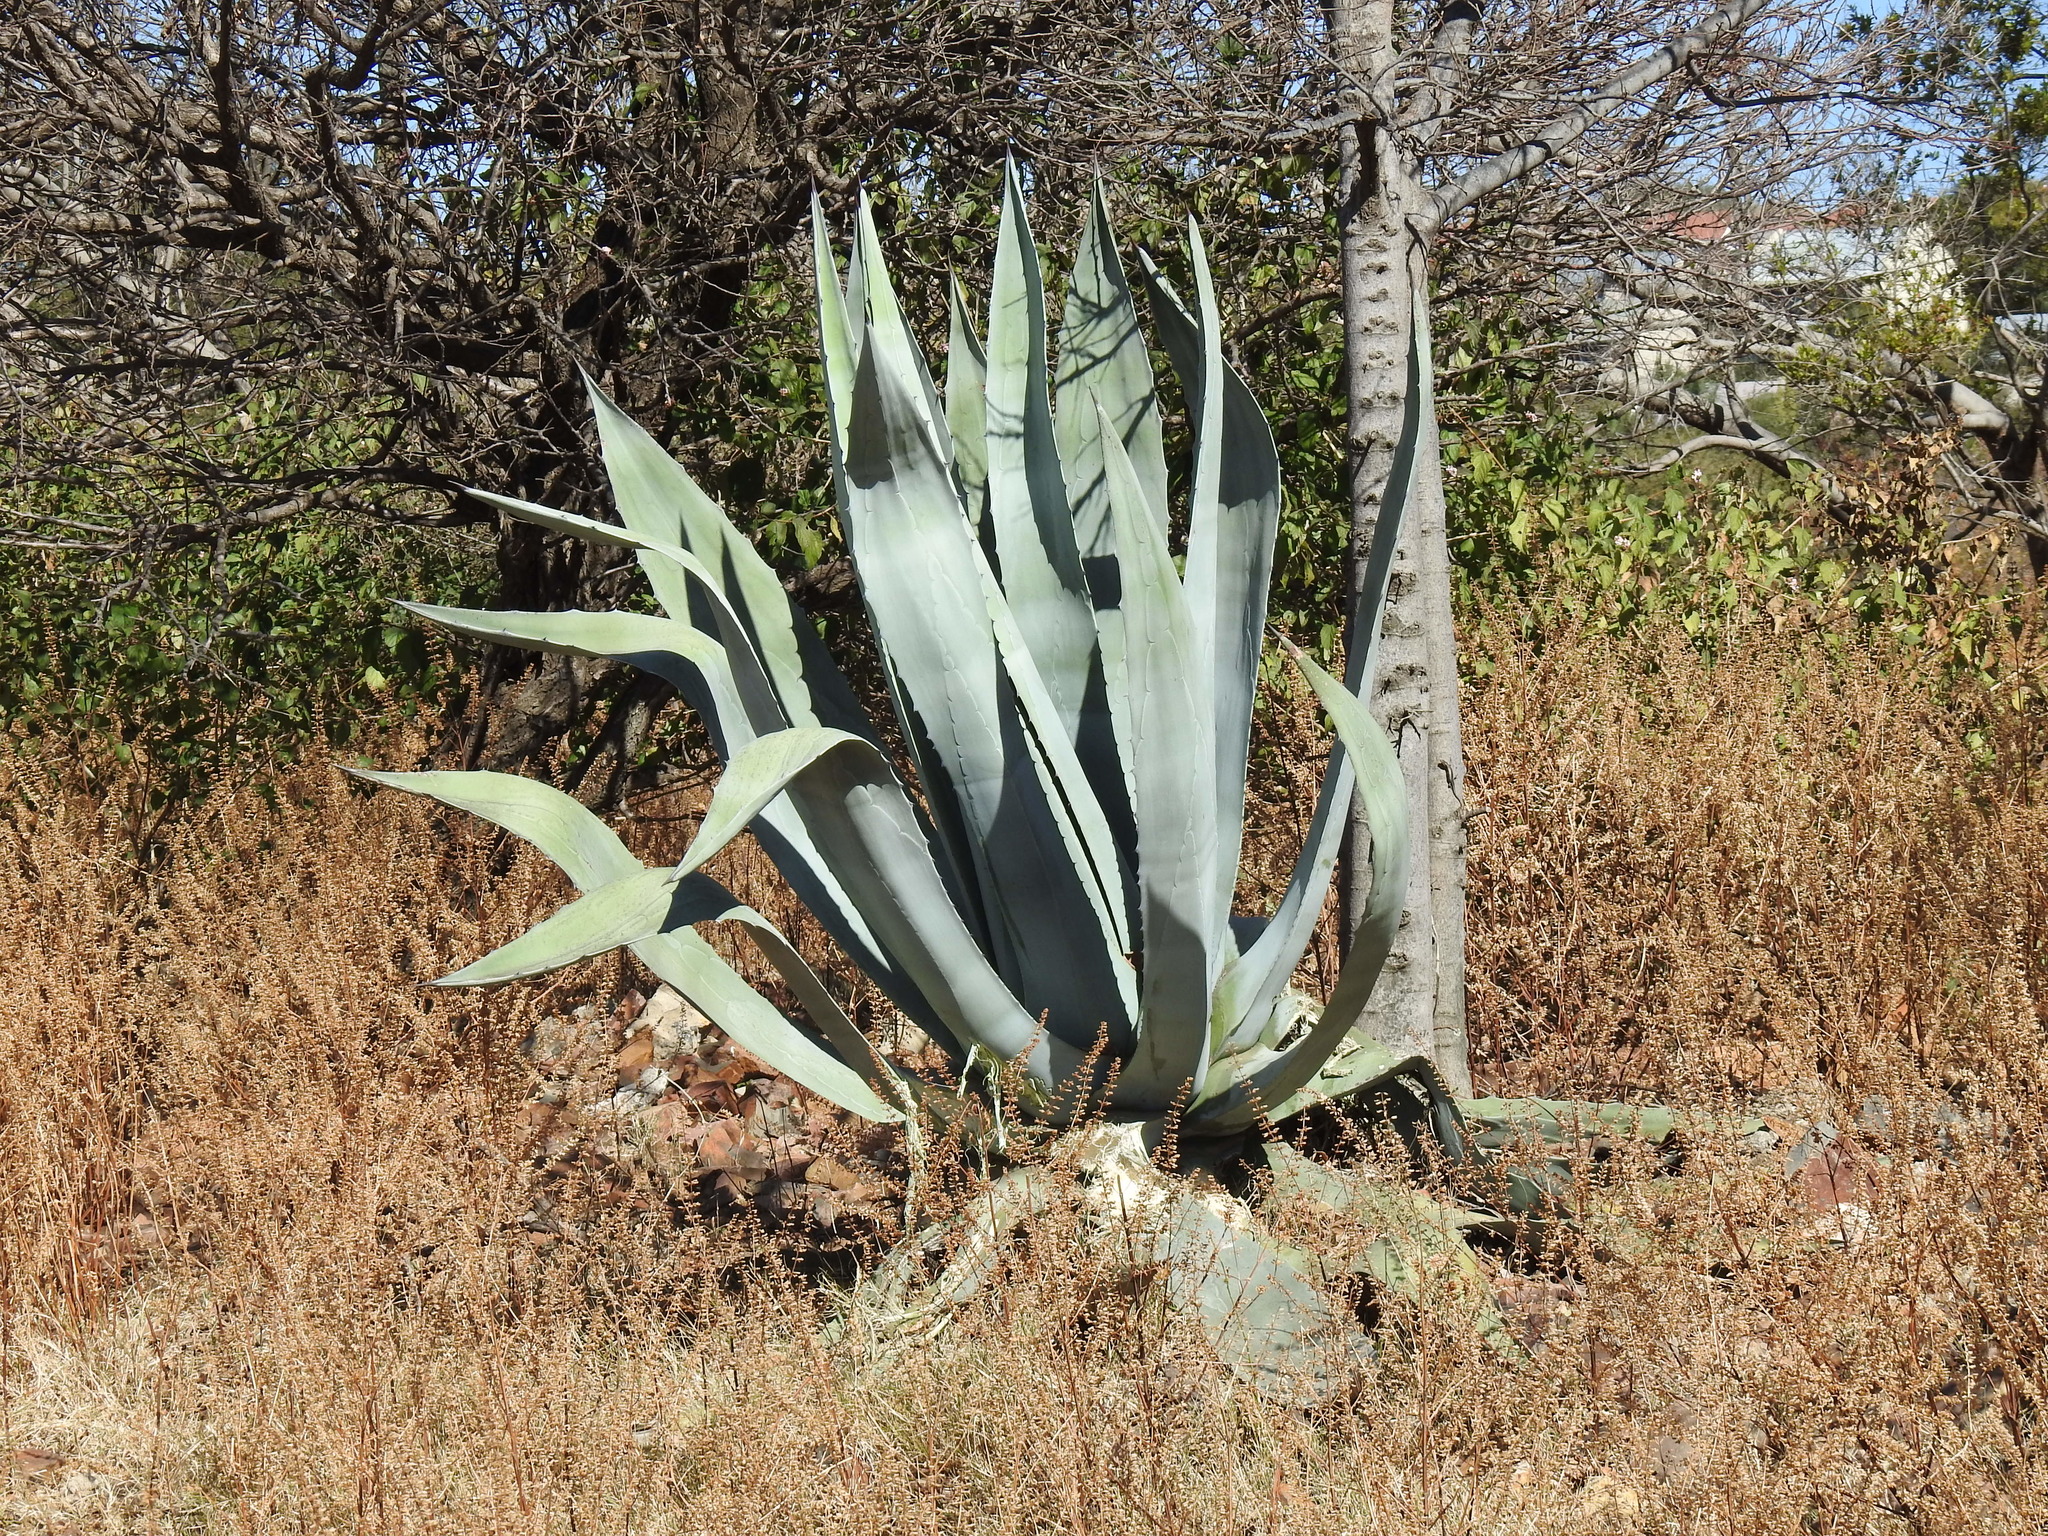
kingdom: Plantae
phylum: Tracheophyta
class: Liliopsida
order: Asparagales
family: Asparagaceae
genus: Agave
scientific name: Agave americana
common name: Centuryplant
